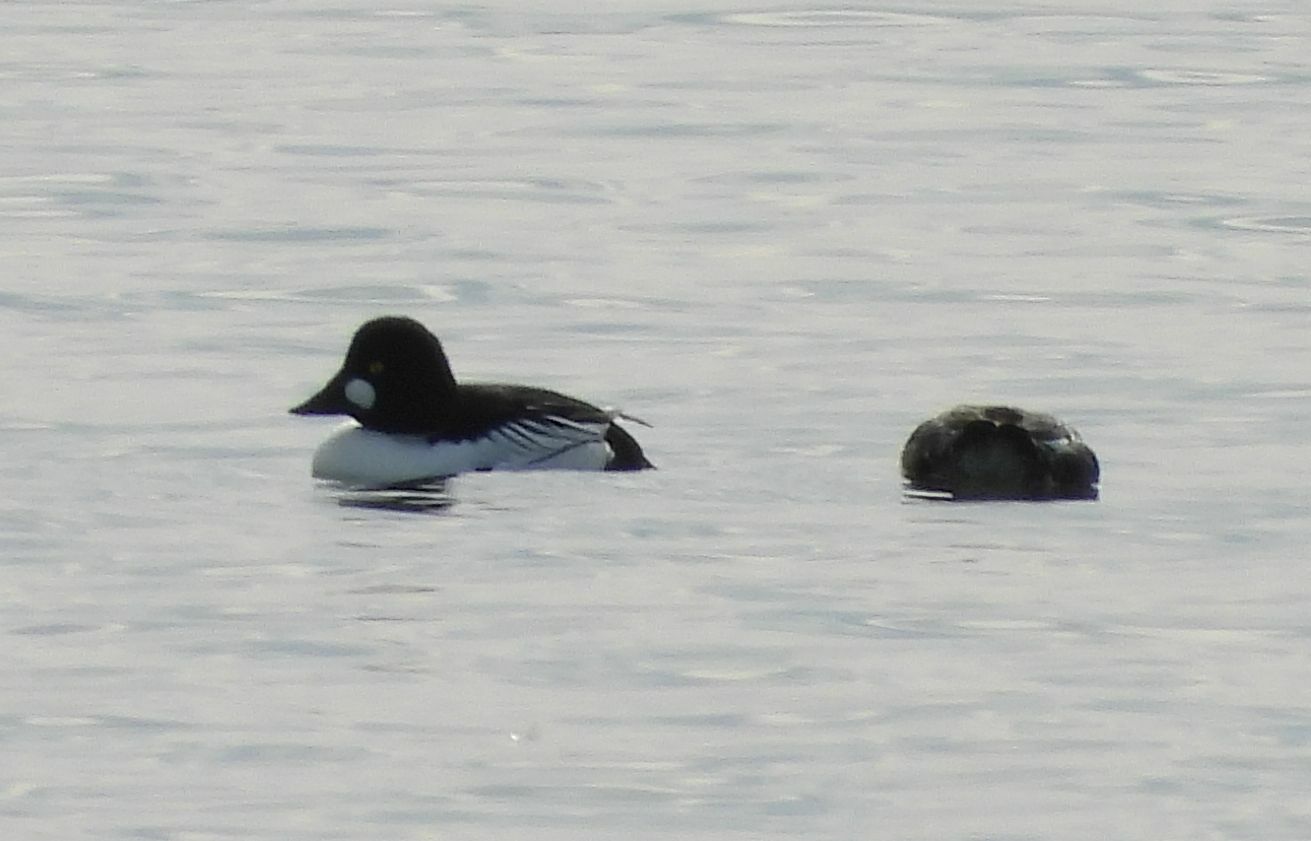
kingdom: Animalia
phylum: Chordata
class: Aves
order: Anseriformes
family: Anatidae
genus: Bucephala
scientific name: Bucephala clangula
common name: Common goldeneye
